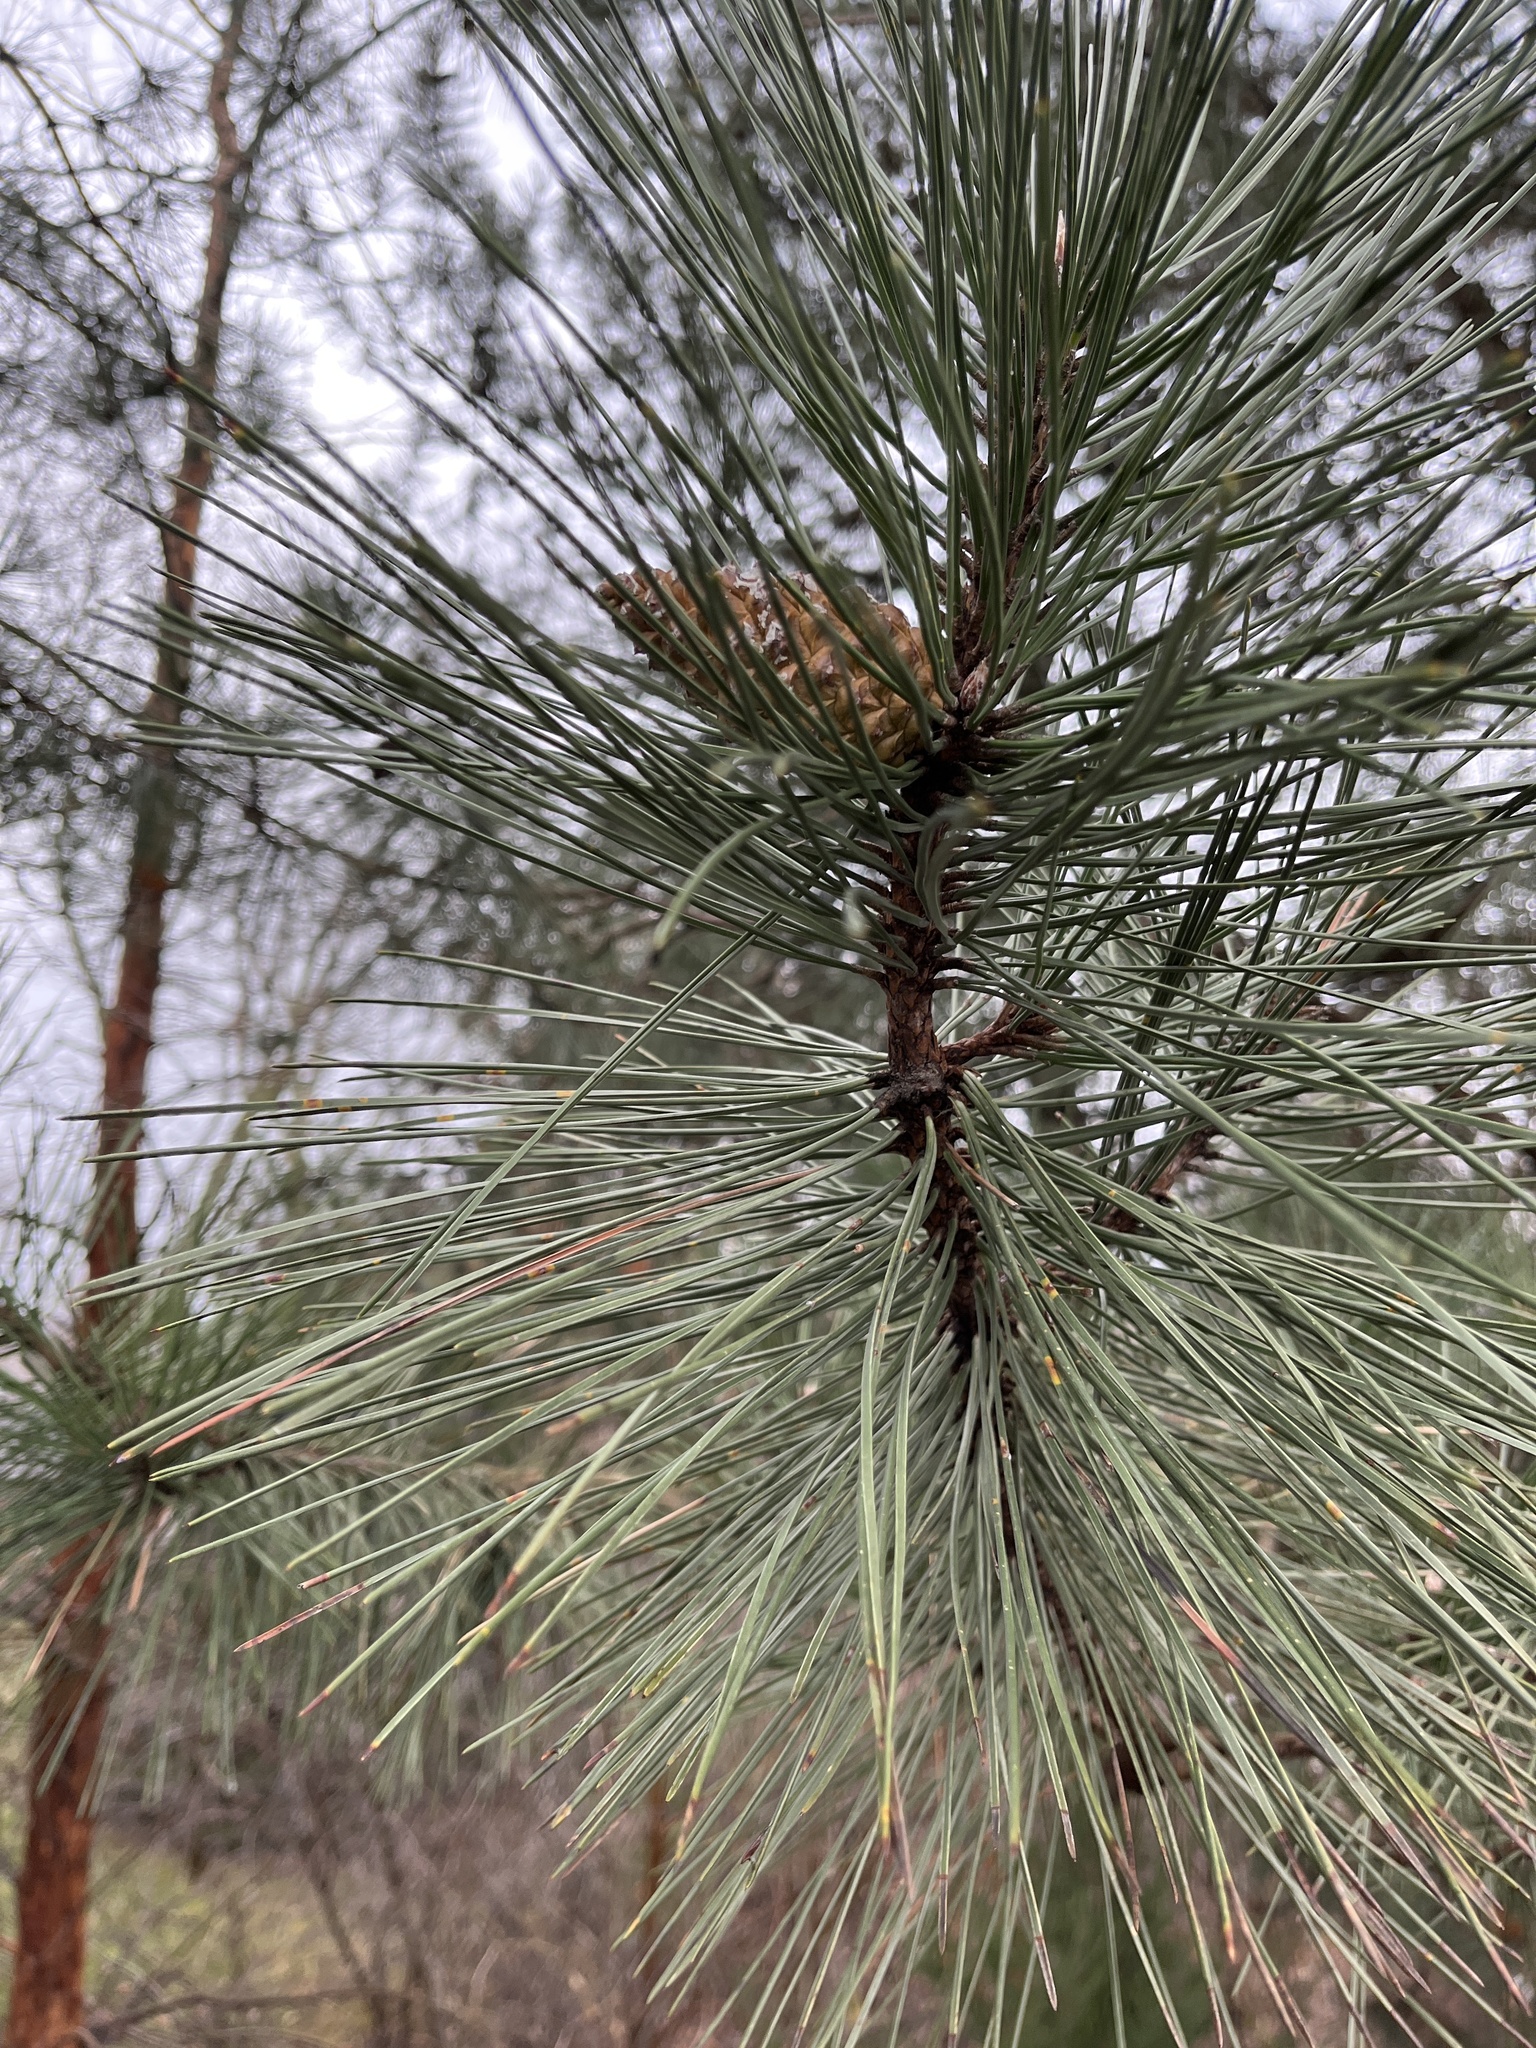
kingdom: Plantae
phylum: Tracheophyta
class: Pinopsida
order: Pinales
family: Pinaceae
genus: Pinus
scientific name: Pinus resinosa
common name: Norway pine
